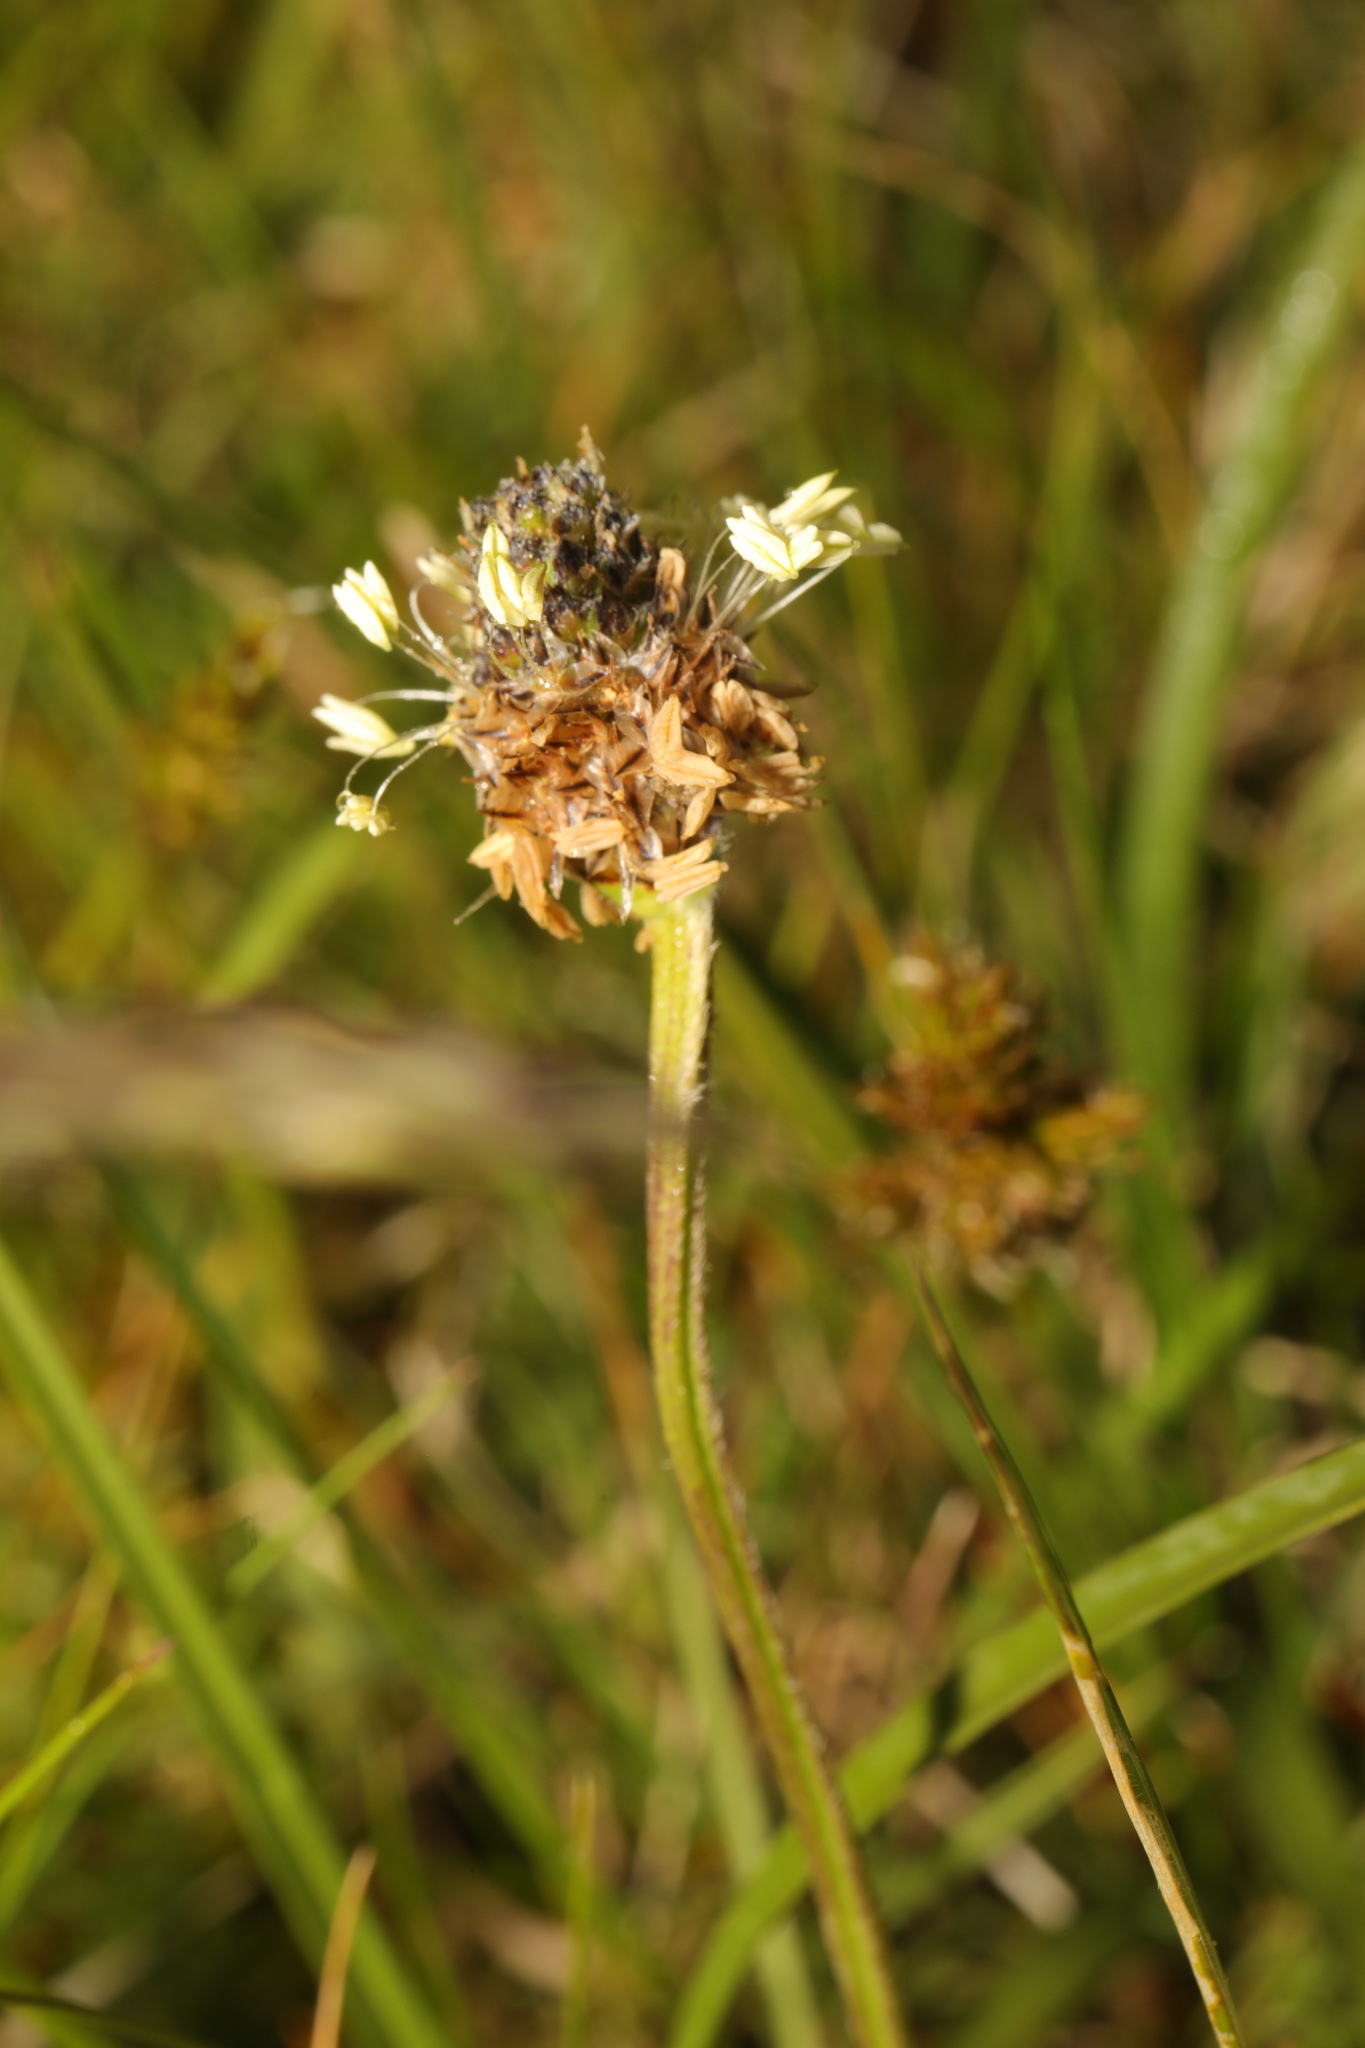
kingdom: Plantae
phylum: Tracheophyta
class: Magnoliopsida
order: Lamiales
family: Plantaginaceae
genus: Plantago
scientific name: Plantago lanceolata
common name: Ribwort plantain
